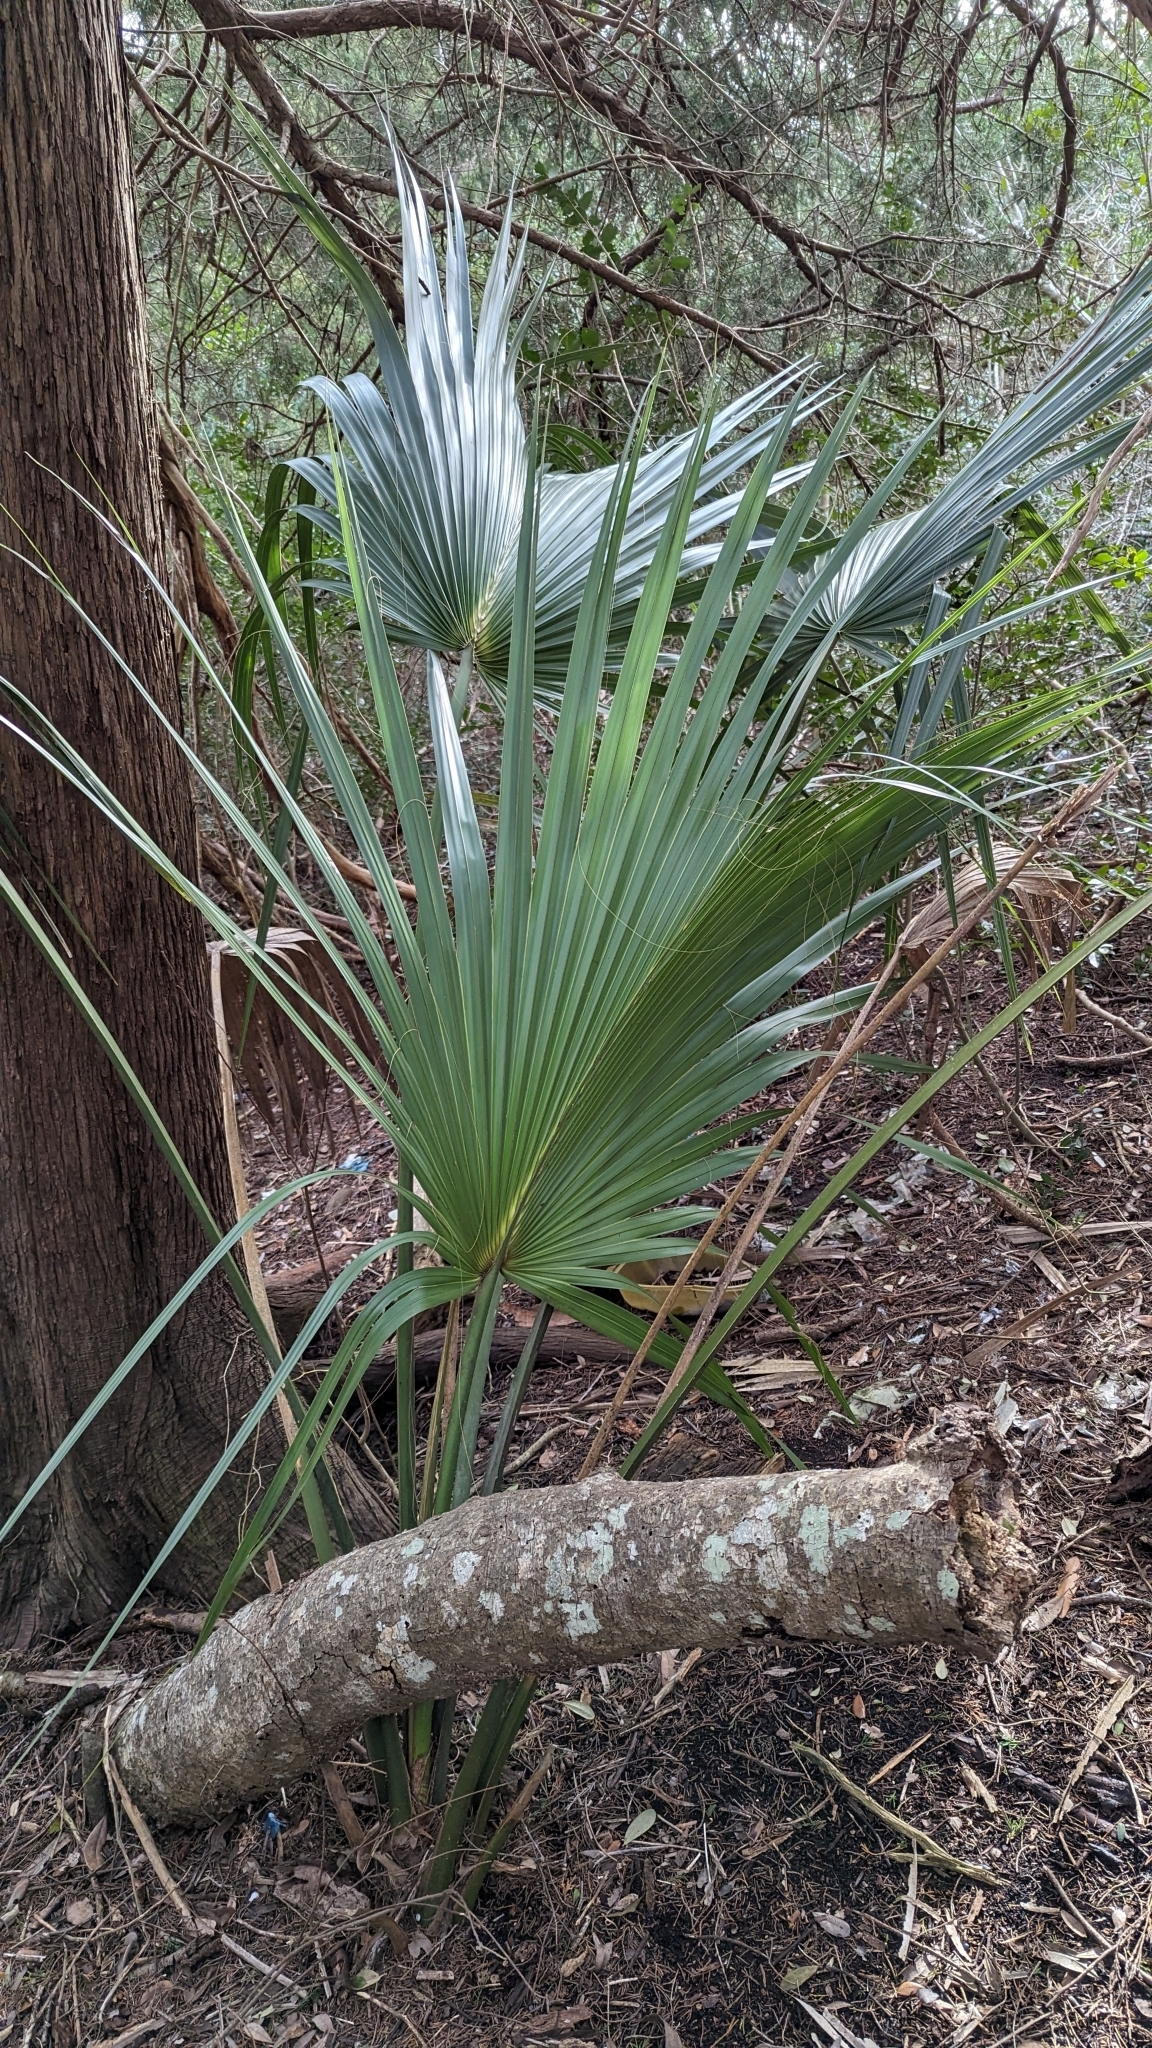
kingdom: Plantae
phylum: Tracheophyta
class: Liliopsida
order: Arecales
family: Arecaceae
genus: Sabal
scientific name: Sabal palmetto
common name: Blue palmetto
